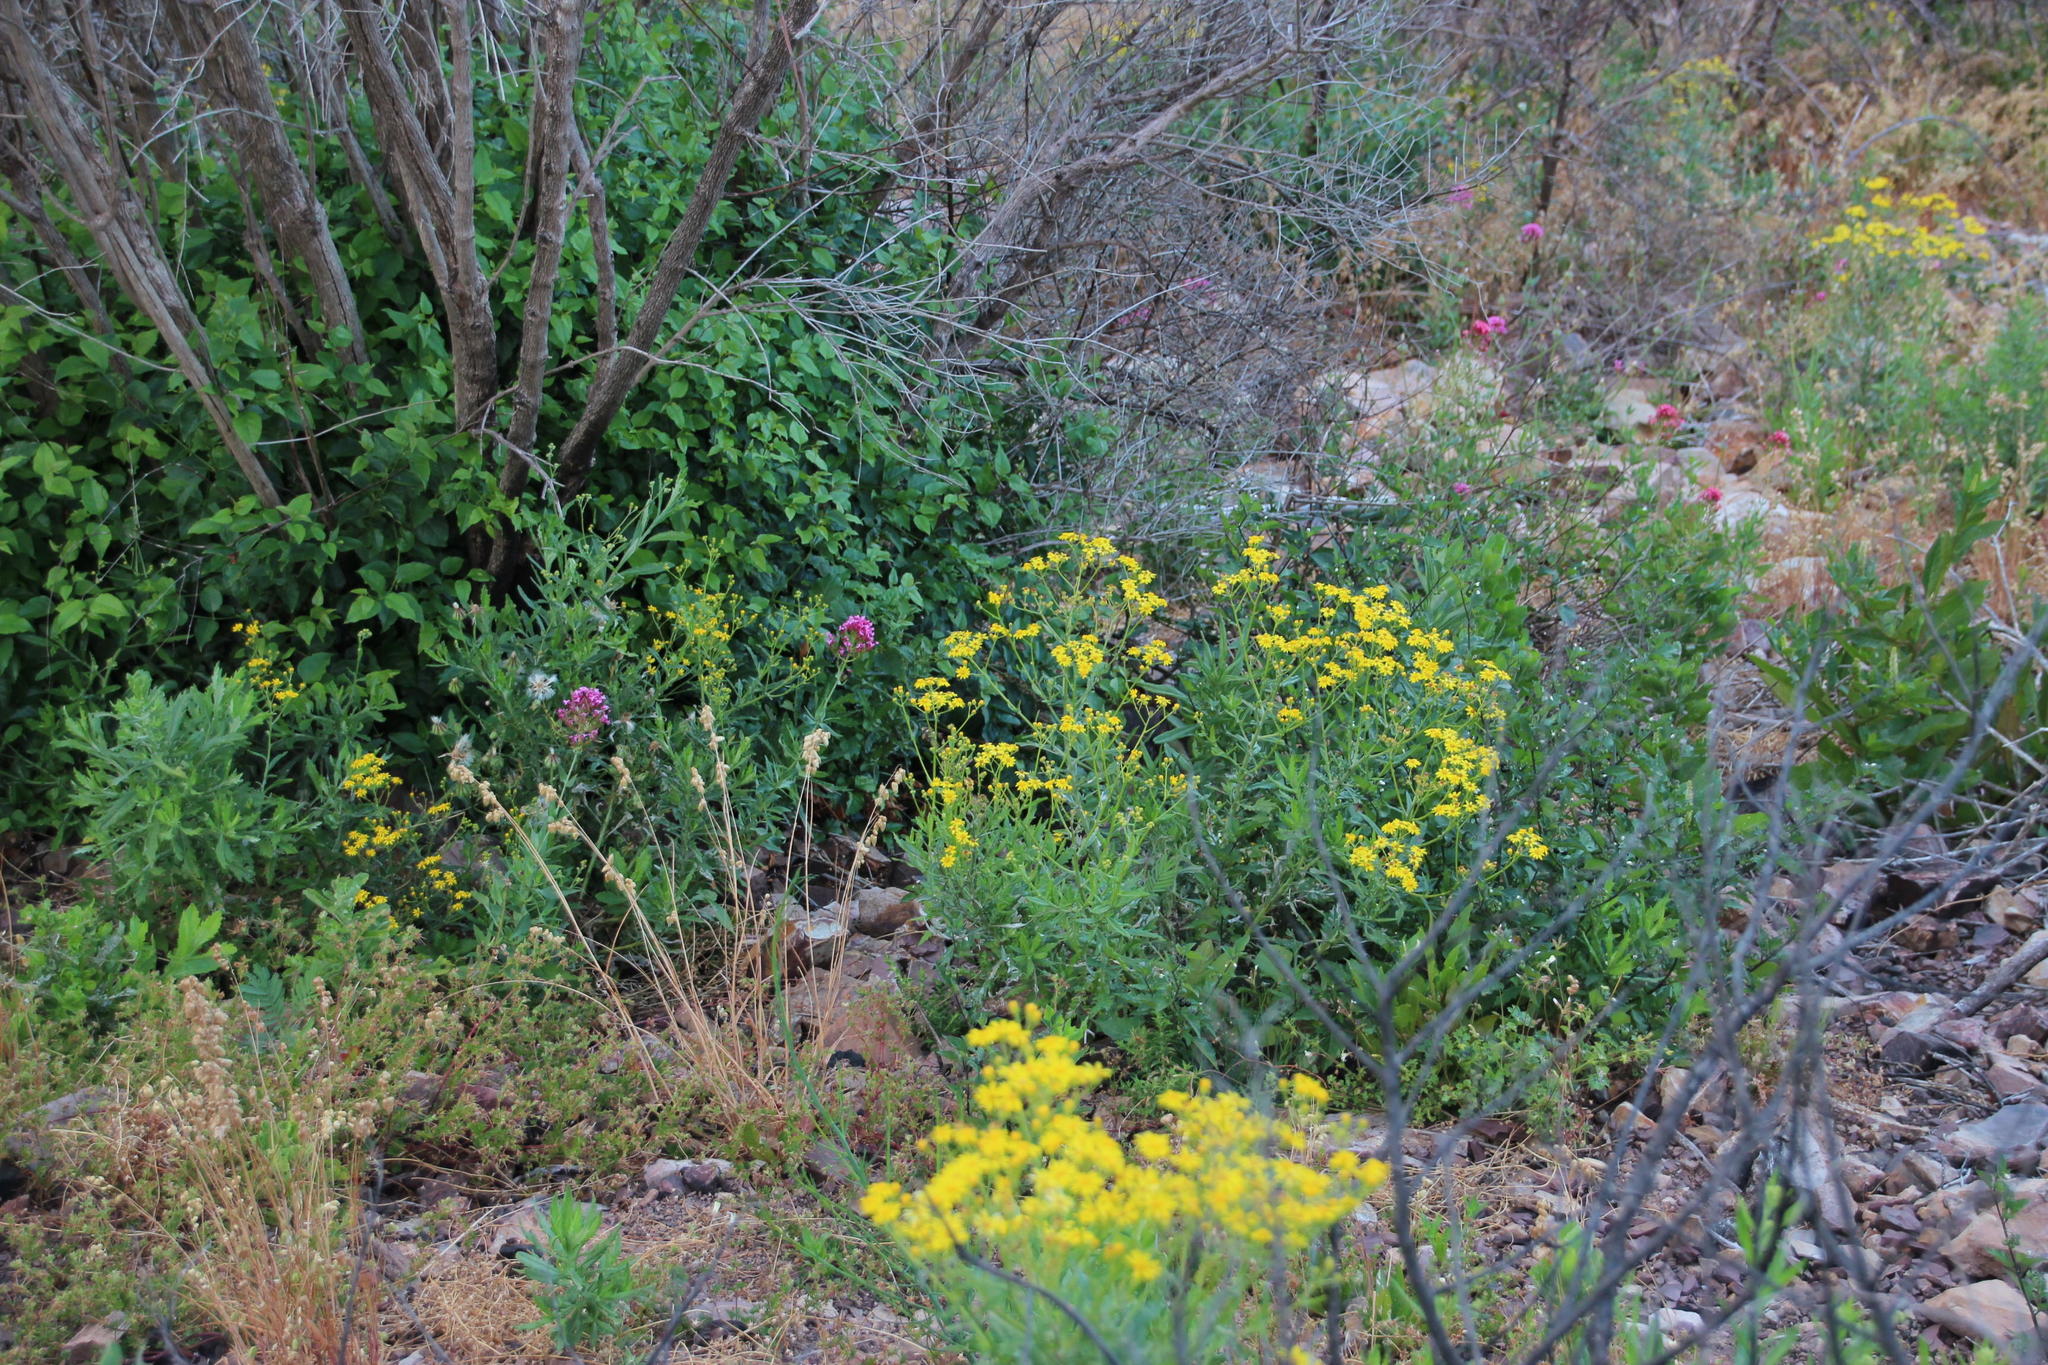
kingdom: Plantae
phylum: Tracheophyta
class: Magnoliopsida
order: Dipsacales
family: Caprifoliaceae
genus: Centranthus
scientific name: Centranthus ruber
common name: Red valerian
